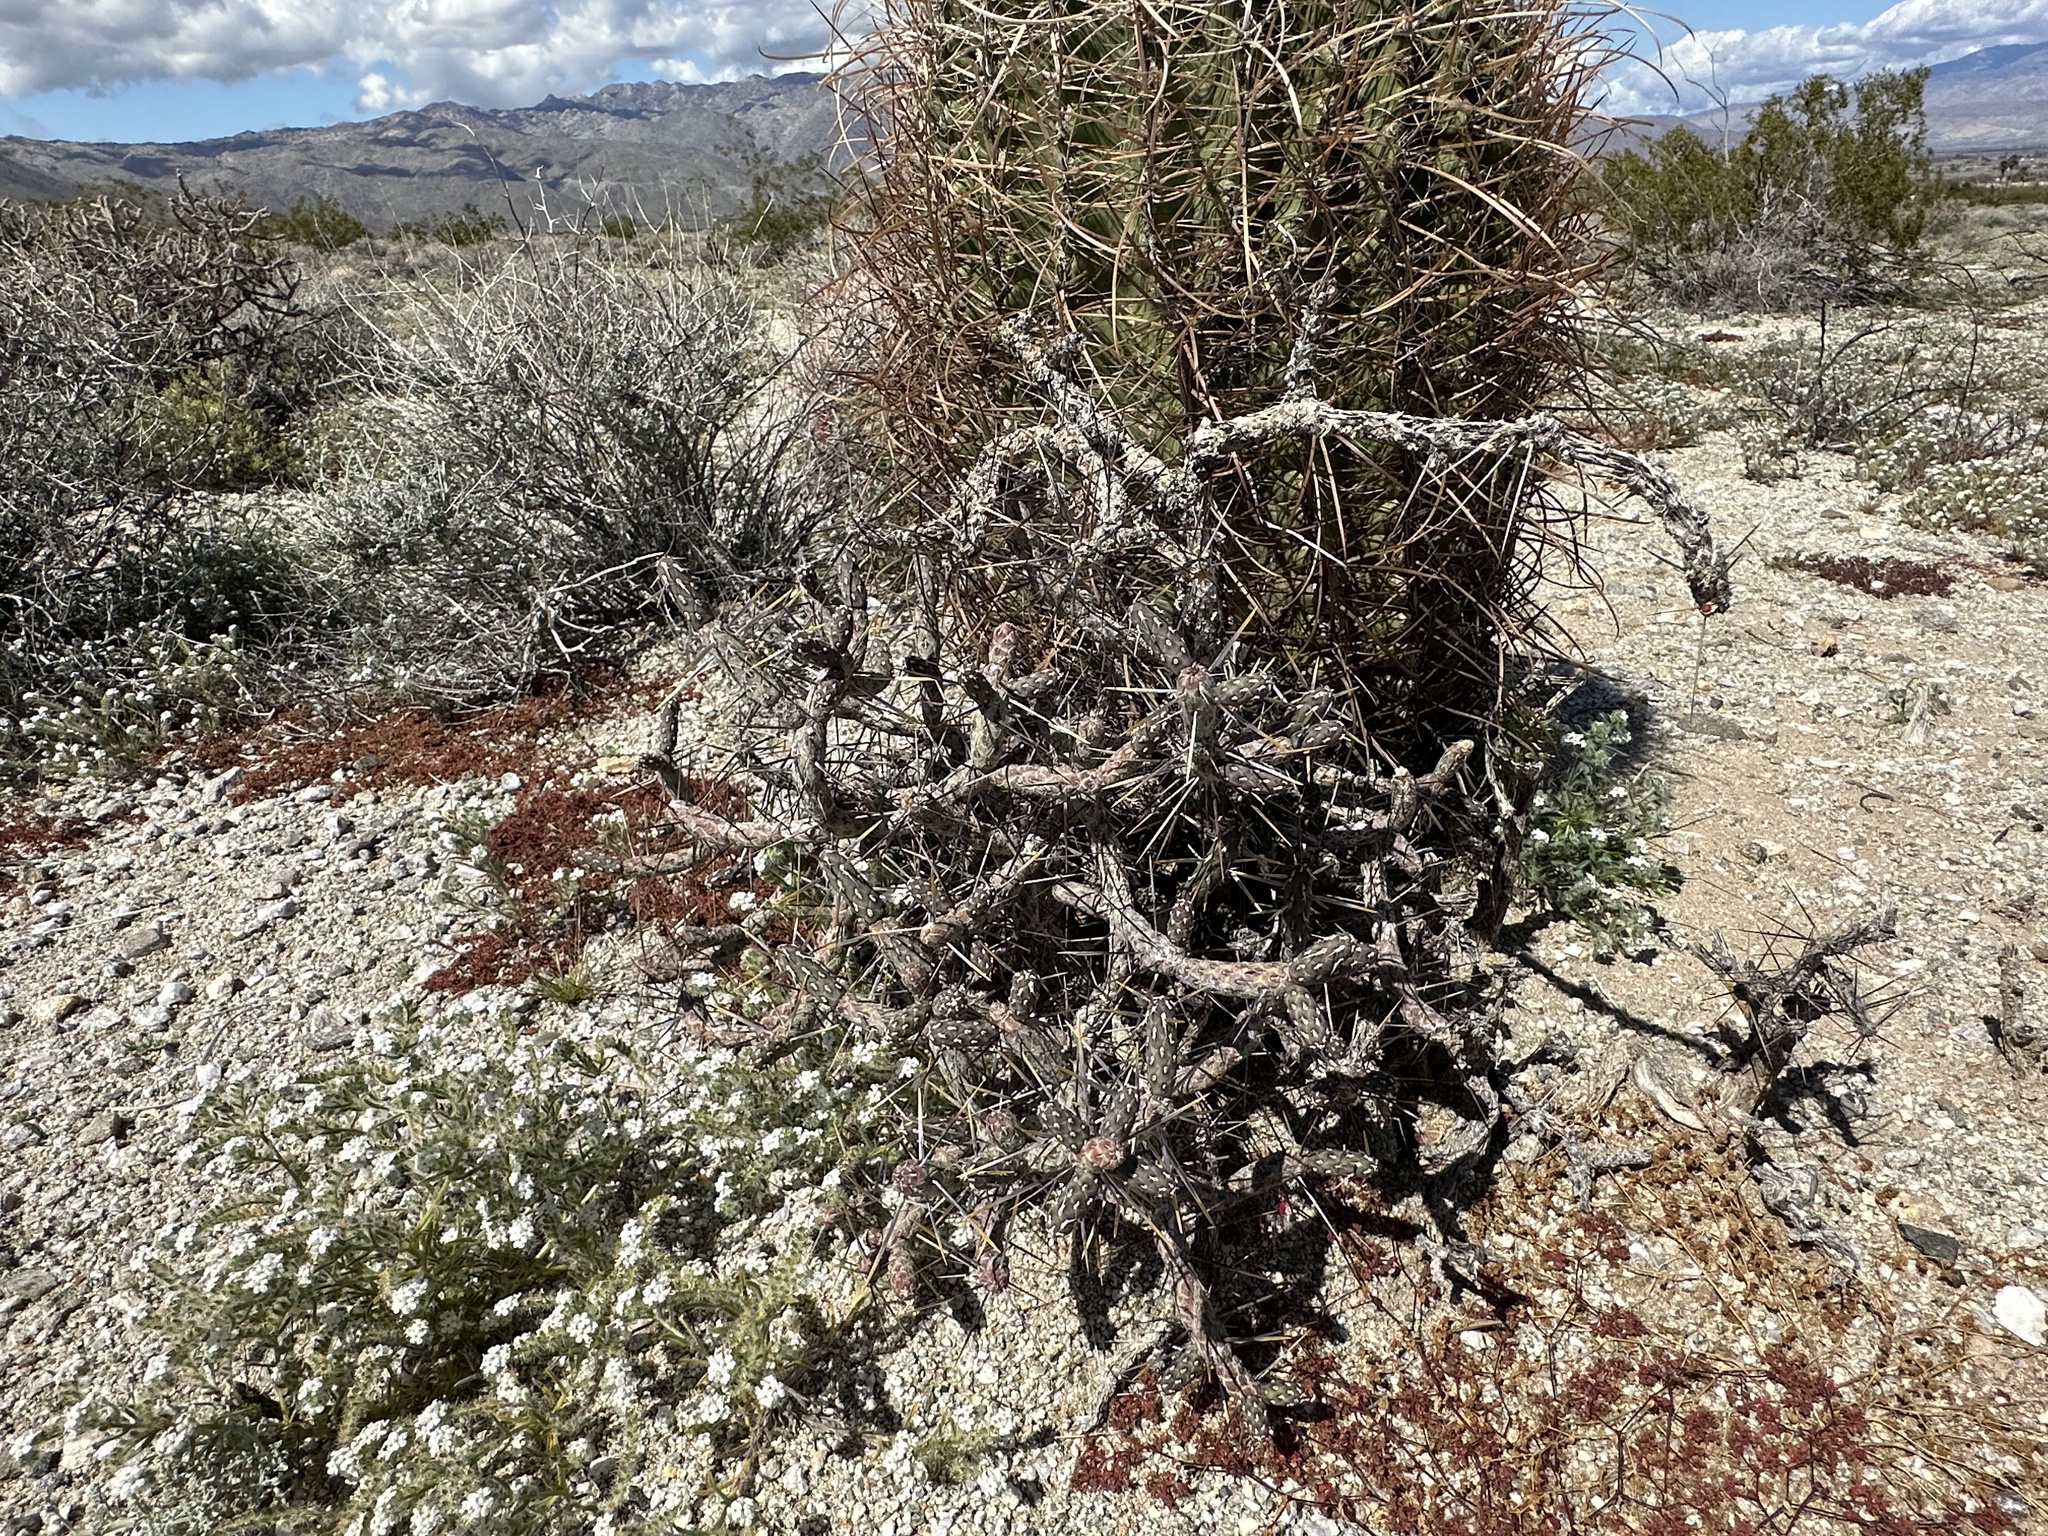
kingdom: Plantae
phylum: Tracheophyta
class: Magnoliopsida
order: Caryophyllales
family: Cactaceae
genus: Cylindropuntia
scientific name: Cylindropuntia ramosissima
